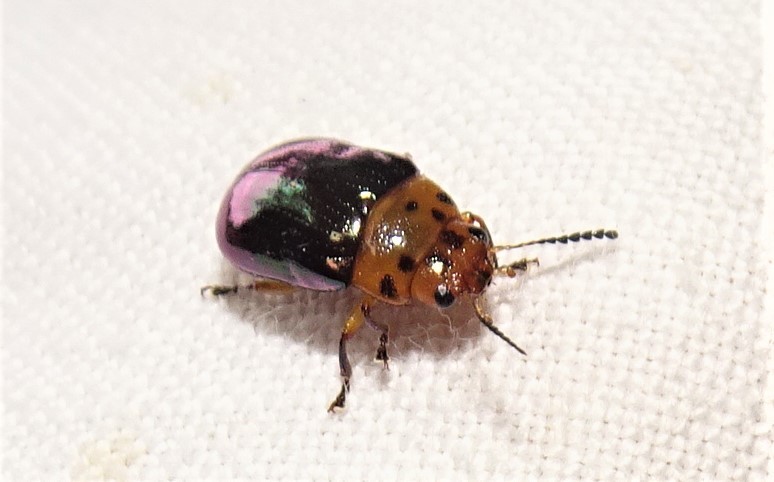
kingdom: Animalia
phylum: Arthropoda
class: Insecta
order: Coleoptera
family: Chrysomelidae
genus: Platymela
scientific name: Platymela
